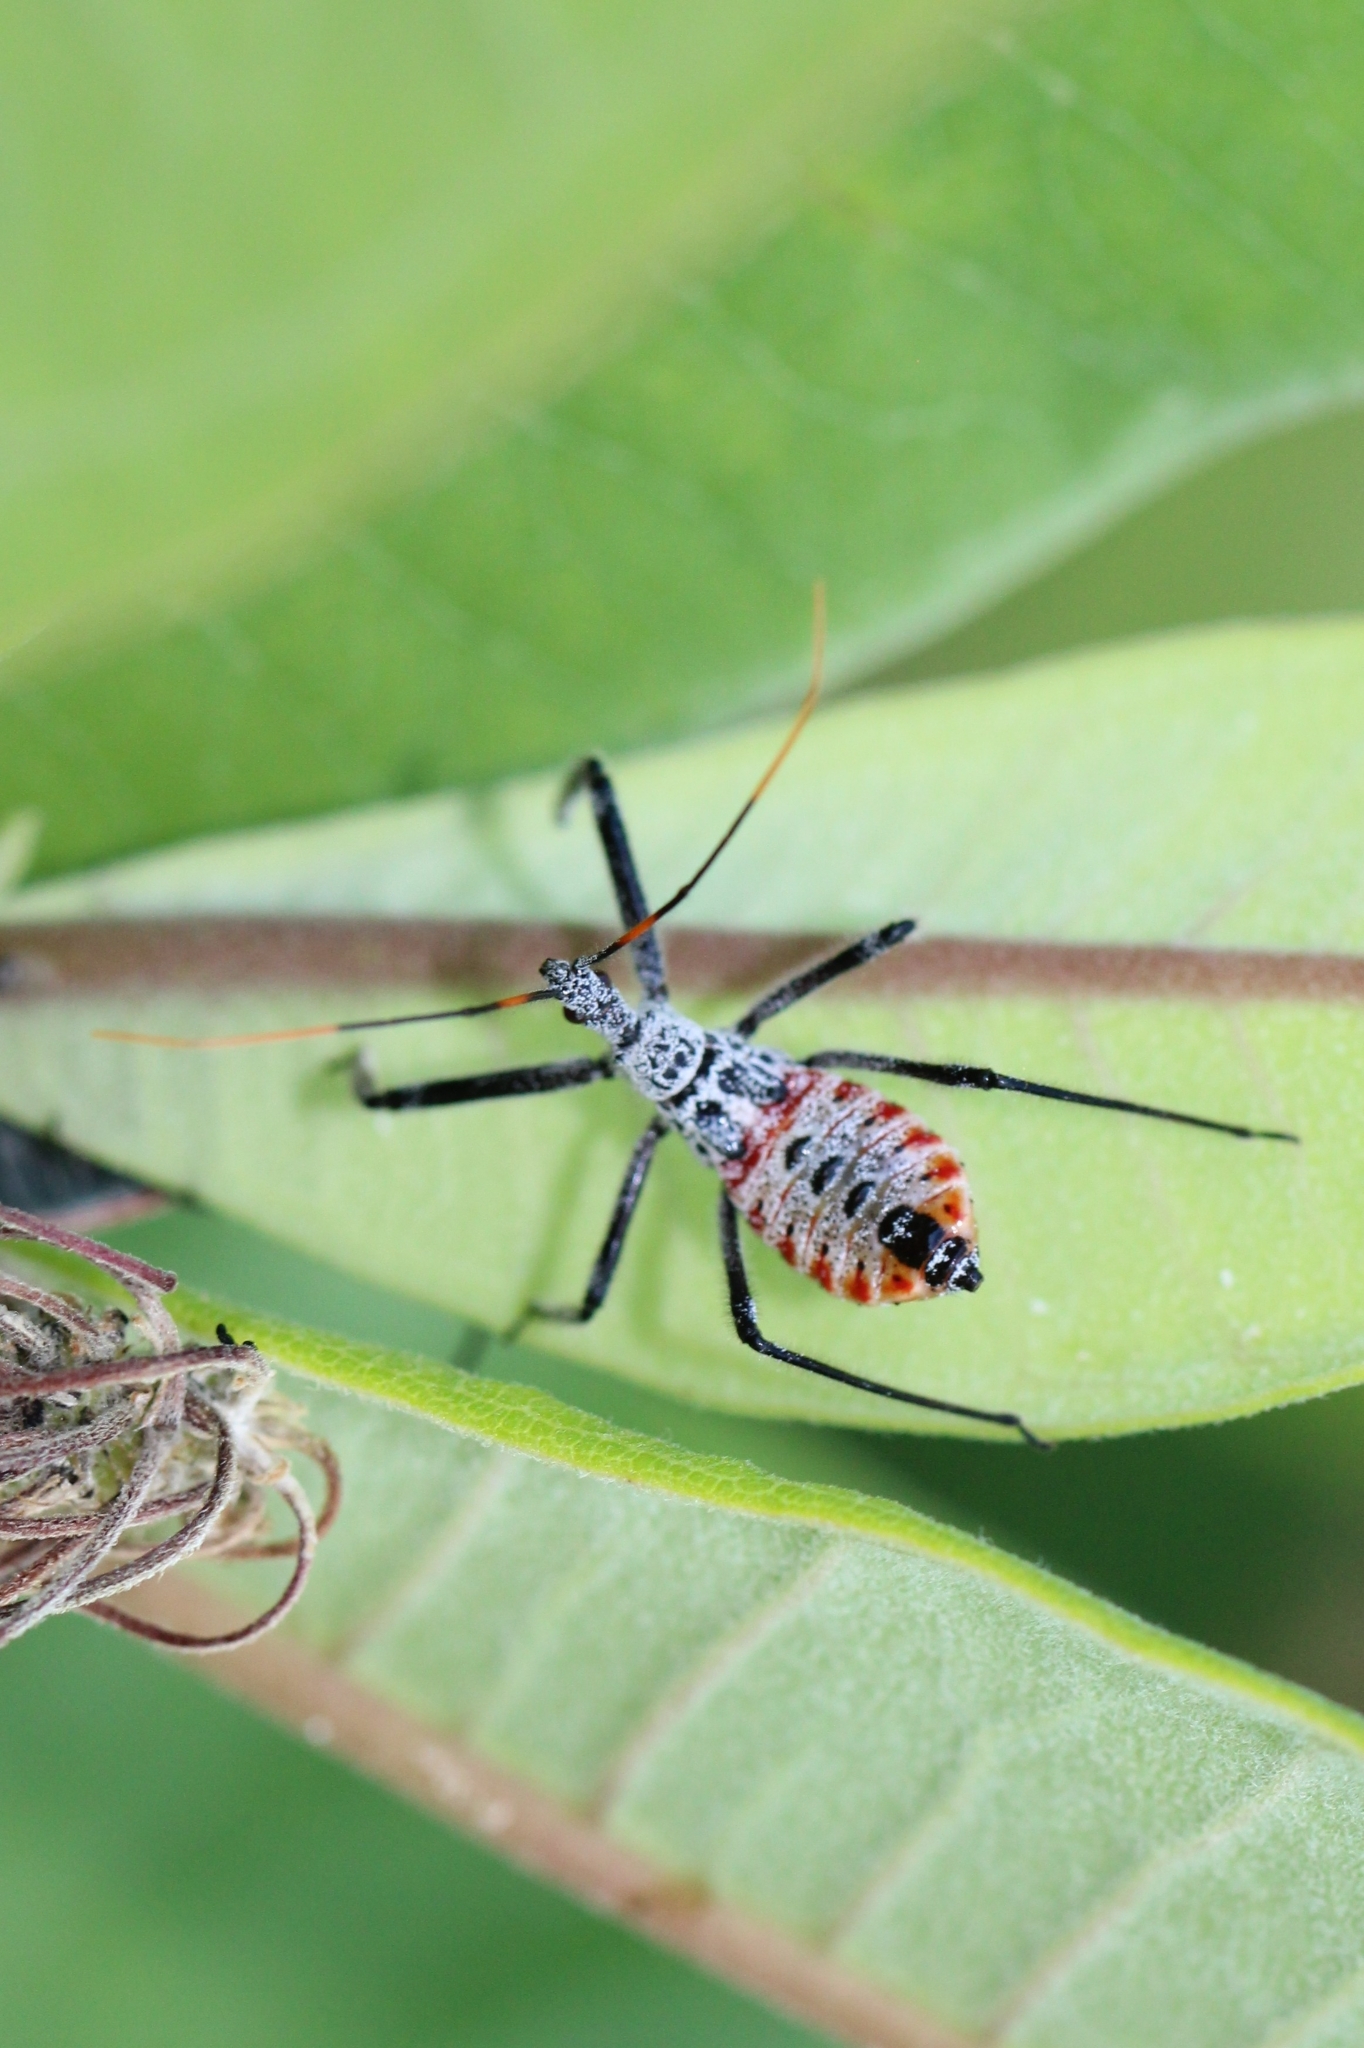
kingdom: Animalia
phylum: Arthropoda
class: Insecta
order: Hemiptera
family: Reduviidae
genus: Arilus
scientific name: Arilus cristatus
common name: North american wheel bug
